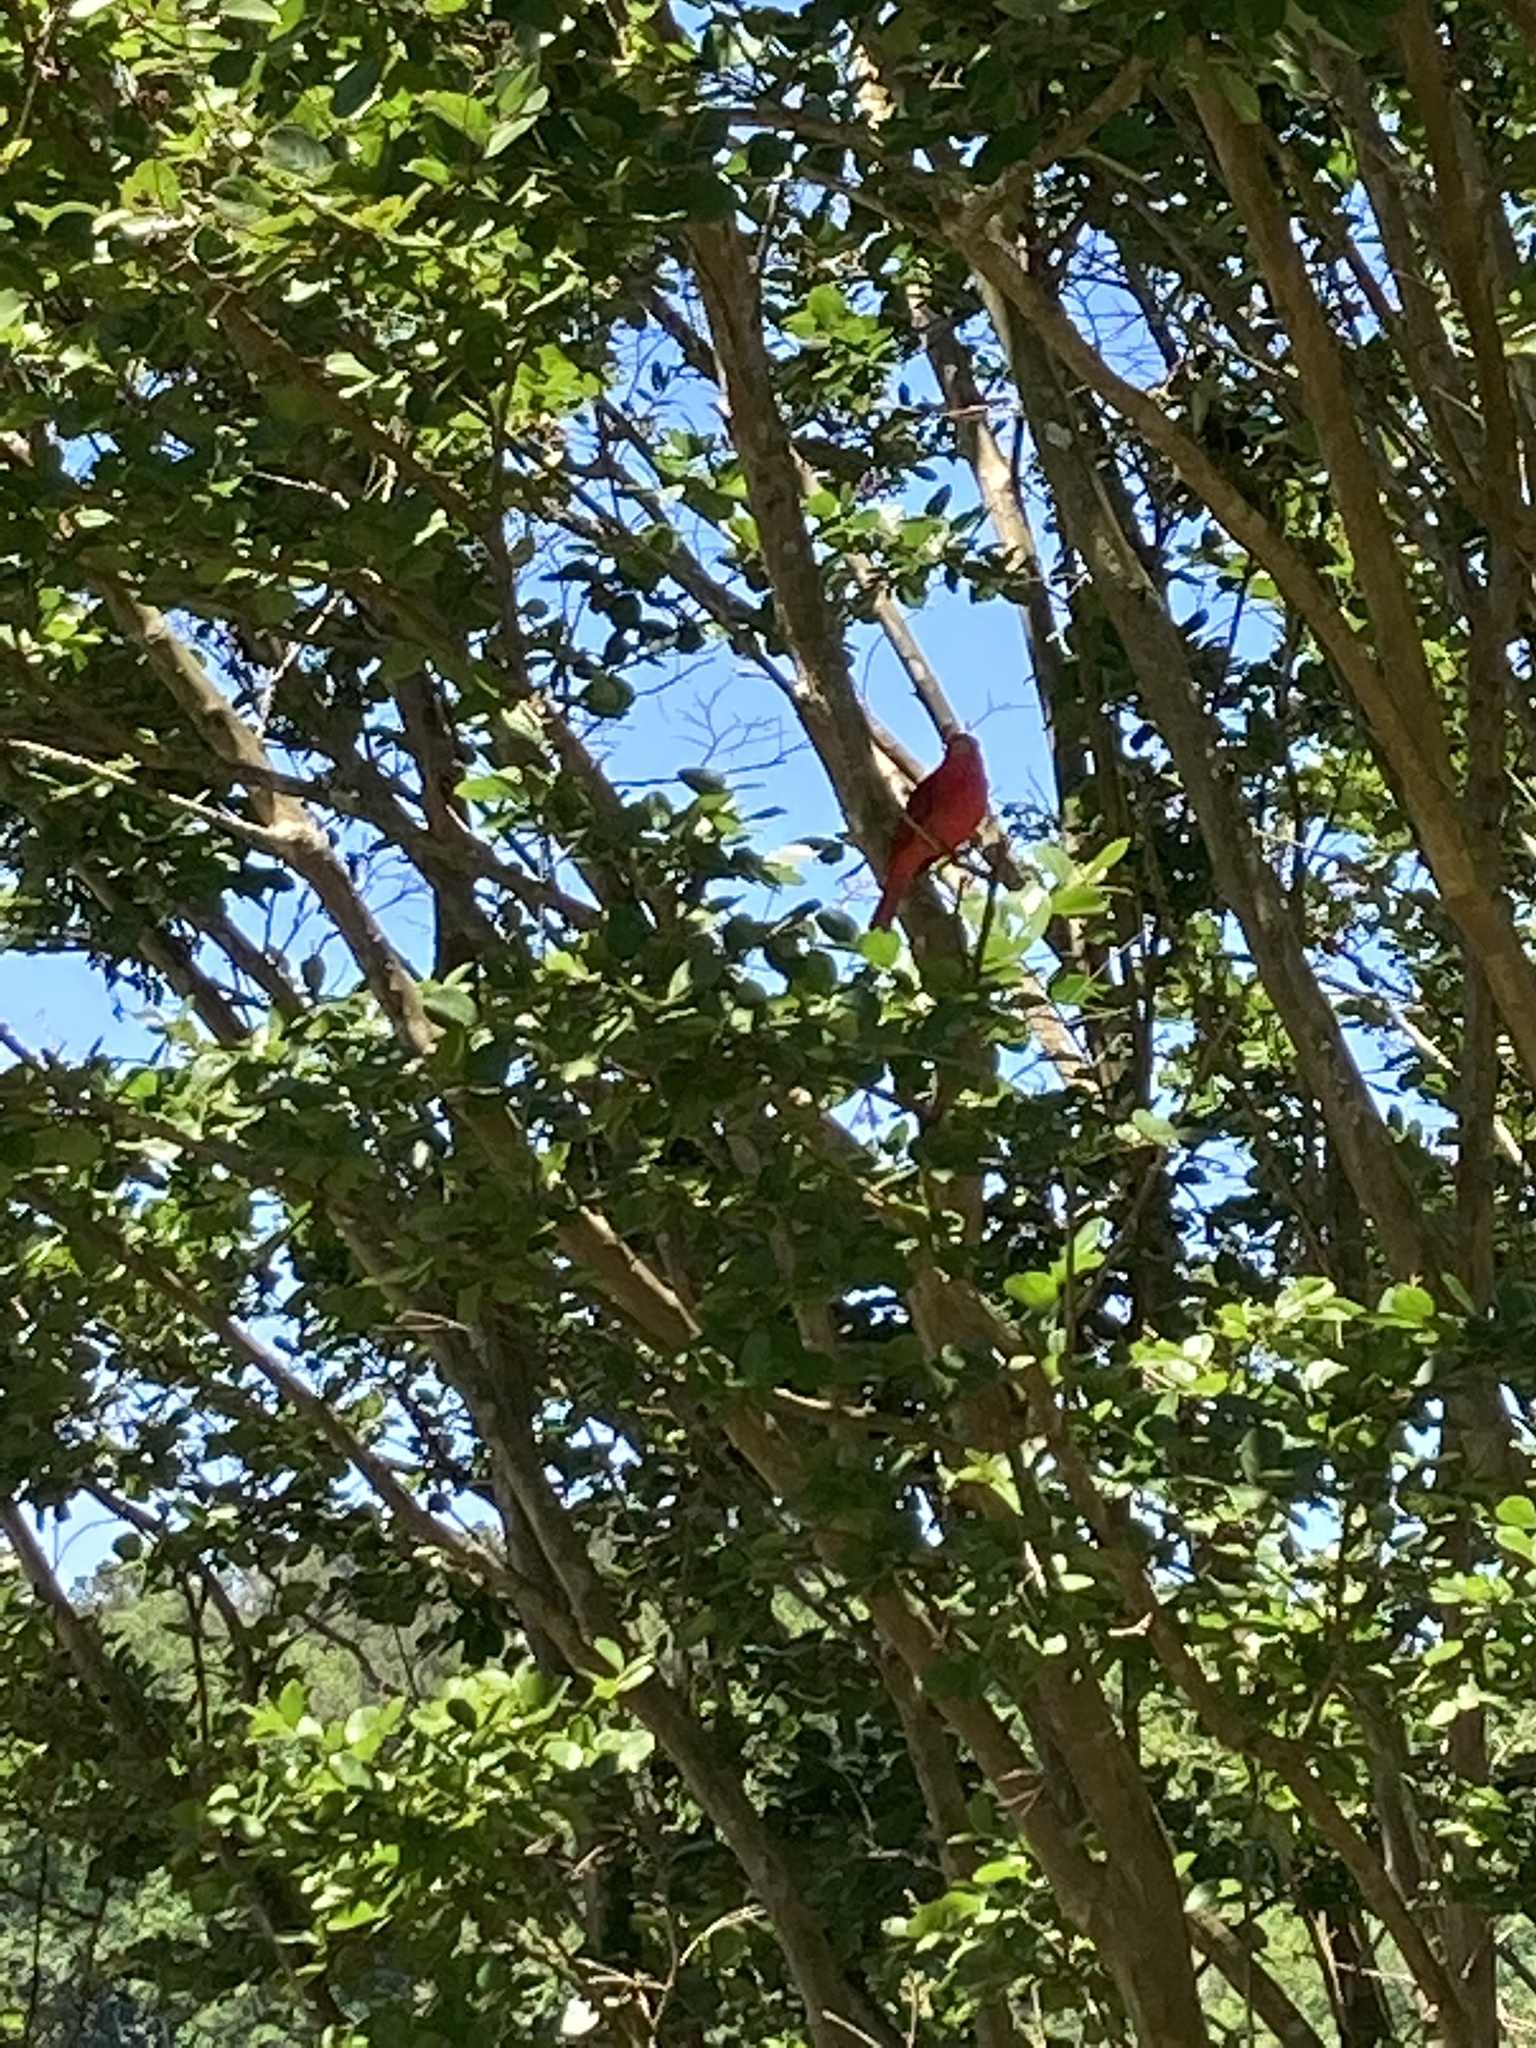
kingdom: Animalia
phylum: Chordata
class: Aves
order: Passeriformes
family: Cardinalidae
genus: Piranga
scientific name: Piranga rubra
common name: Summer tanager
